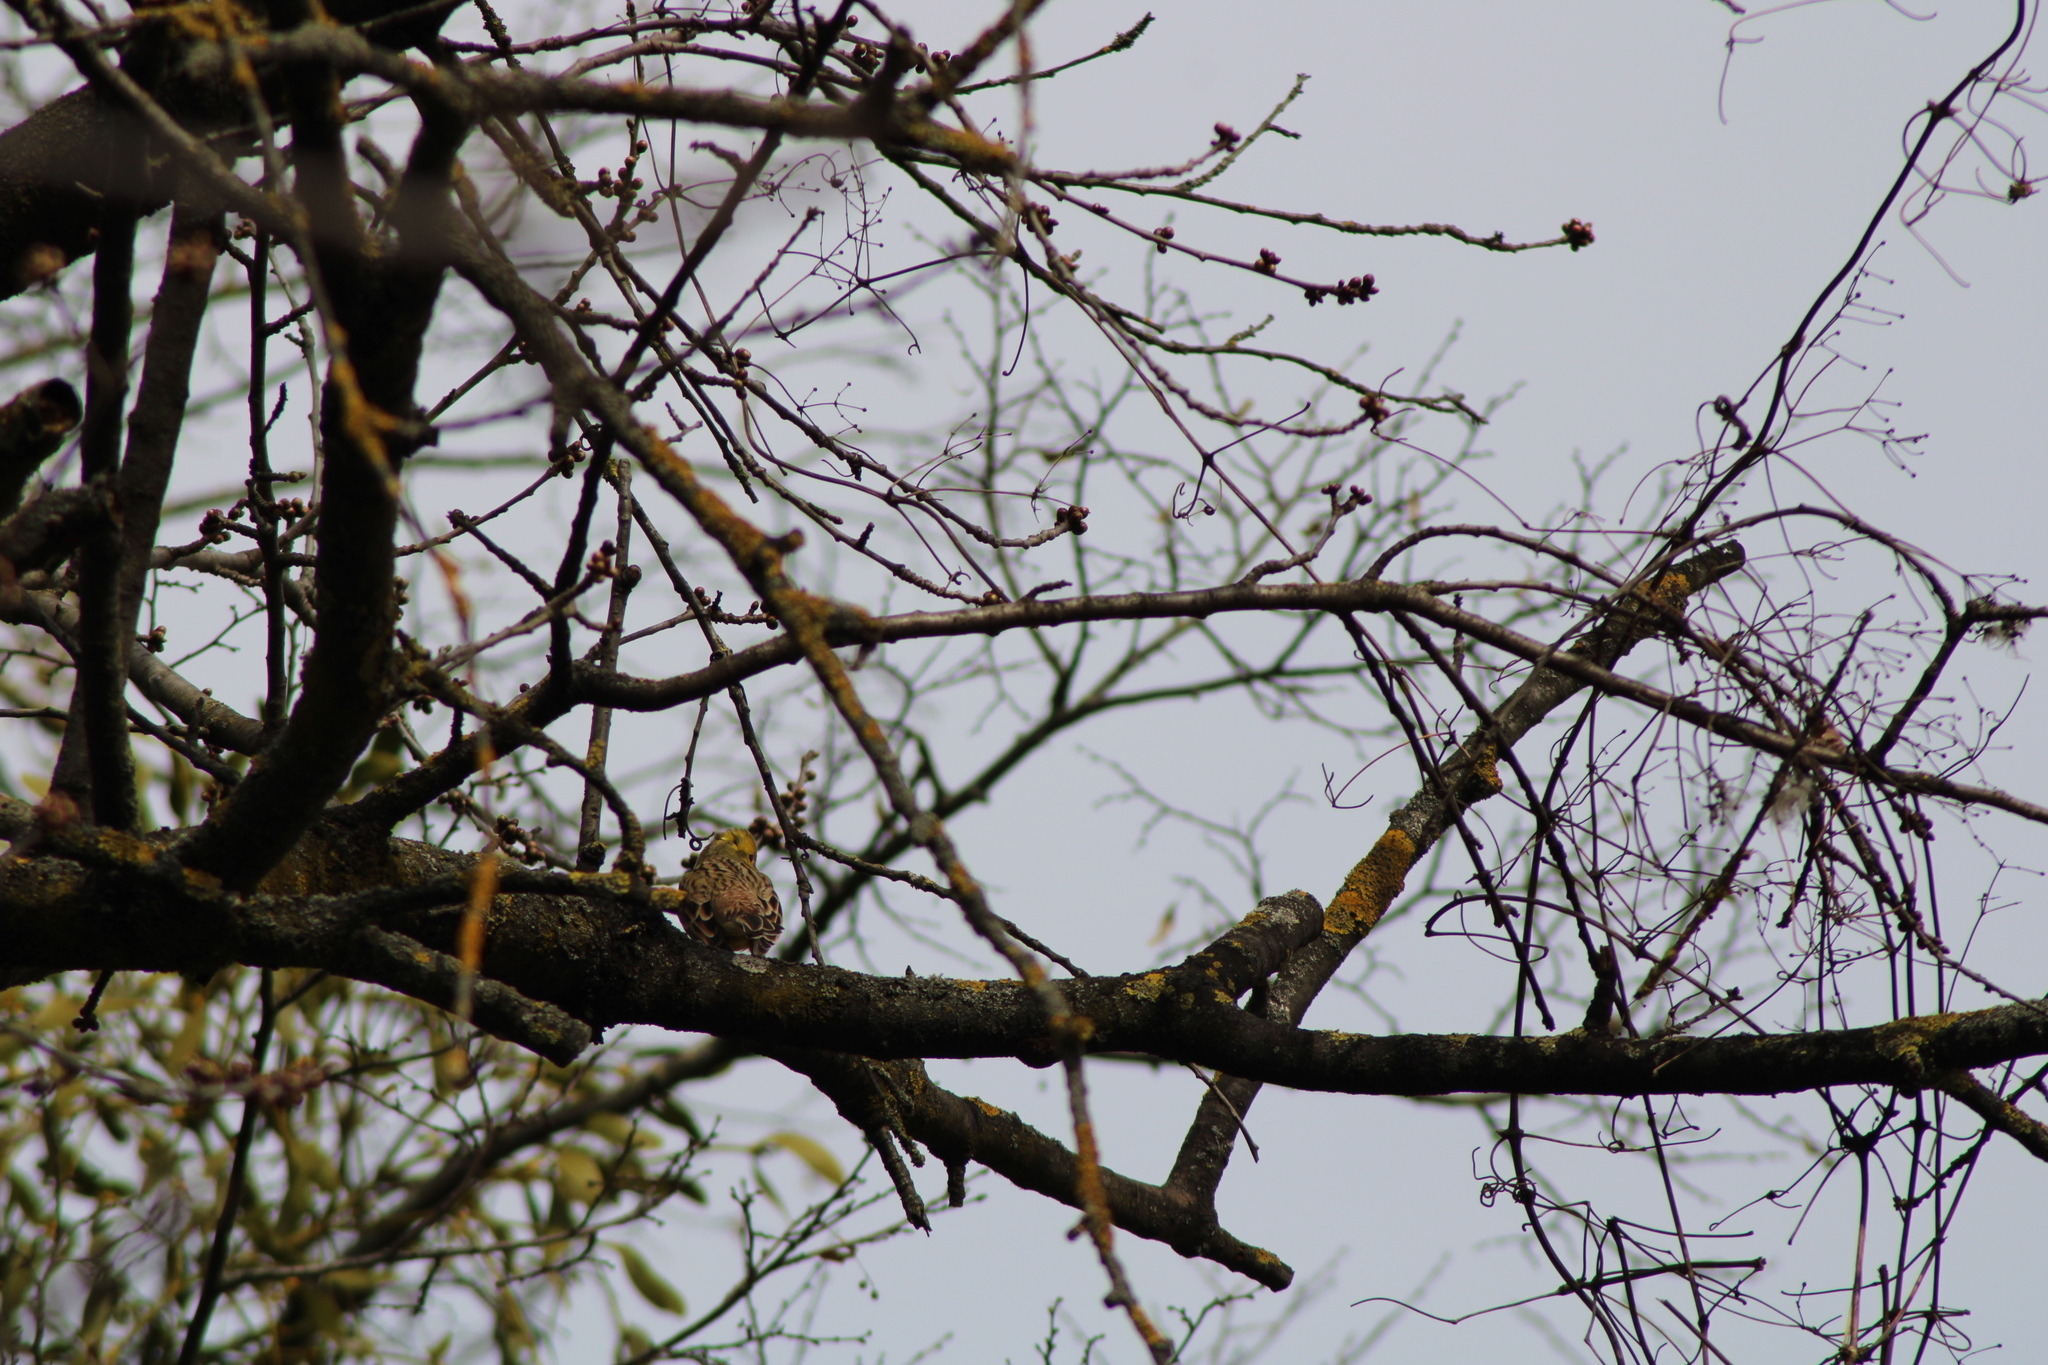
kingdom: Animalia
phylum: Chordata
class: Aves
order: Passeriformes
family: Emberizidae
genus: Emberiza
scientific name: Emberiza citrinella
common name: Yellowhammer
